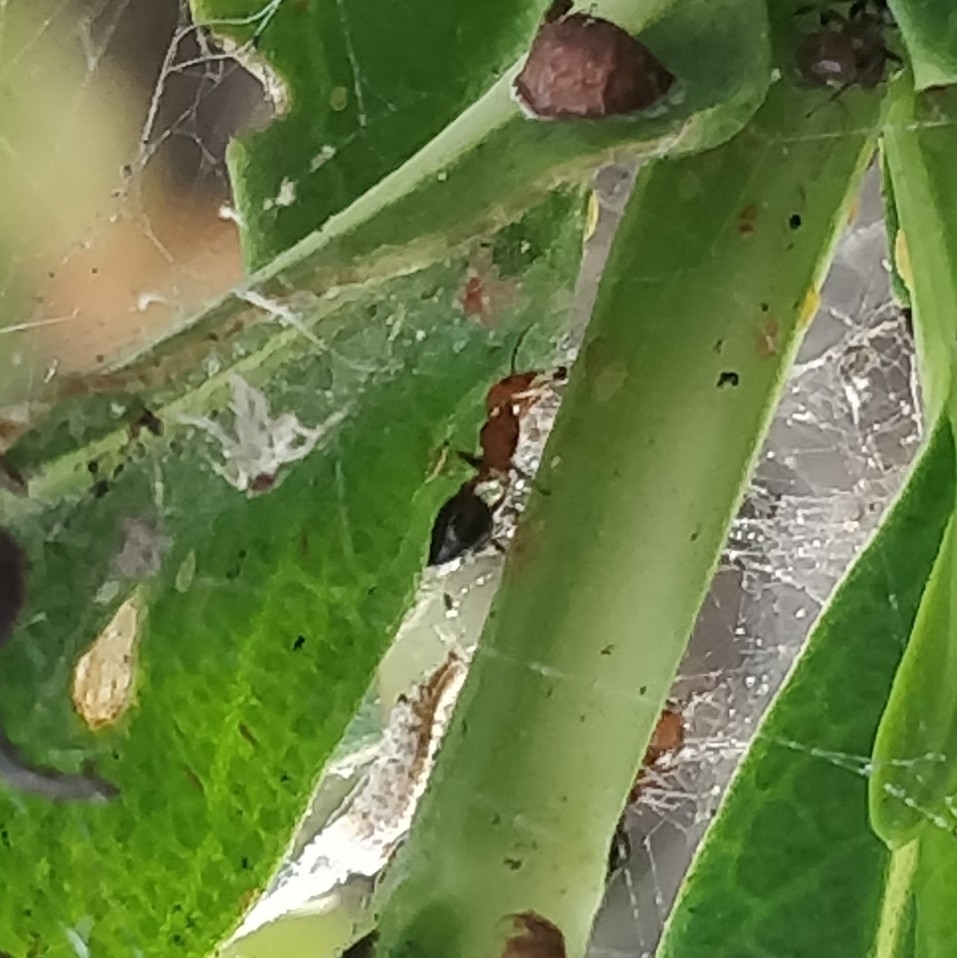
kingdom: Animalia
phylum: Arthropoda
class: Insecta
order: Hymenoptera
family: Formicidae
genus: Crematogaster
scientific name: Crematogaster alluaudi
